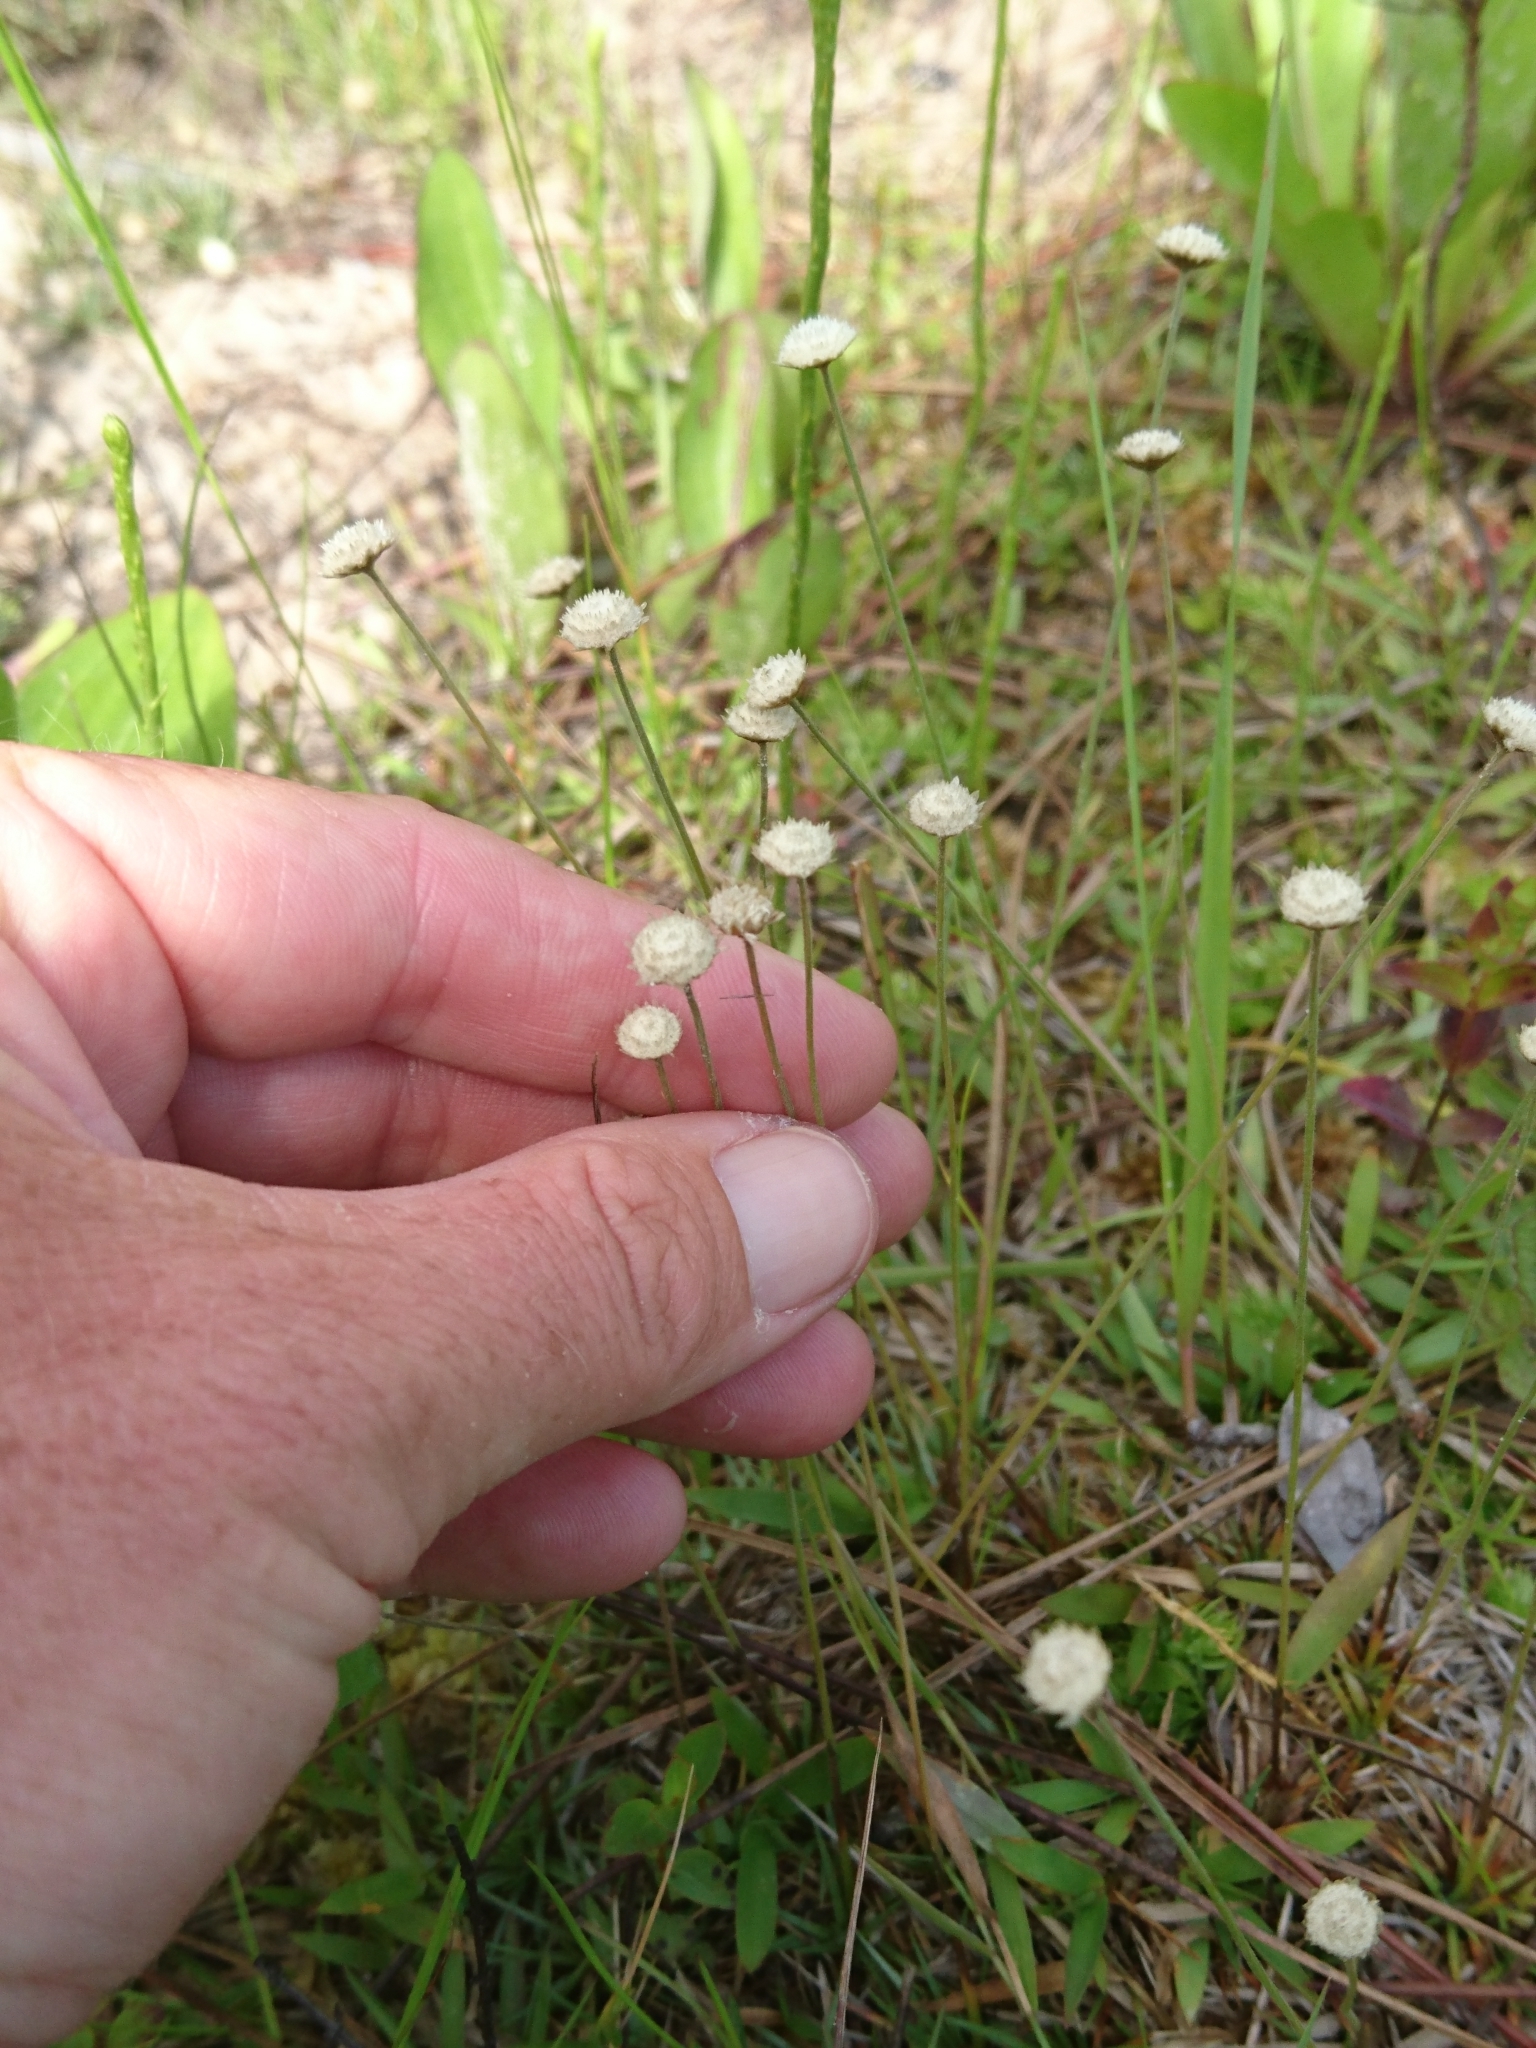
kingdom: Plantae
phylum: Tracheophyta
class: Liliopsida
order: Poales
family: Eriocaulaceae
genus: Syngonanthus
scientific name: Syngonanthus flavidulus
